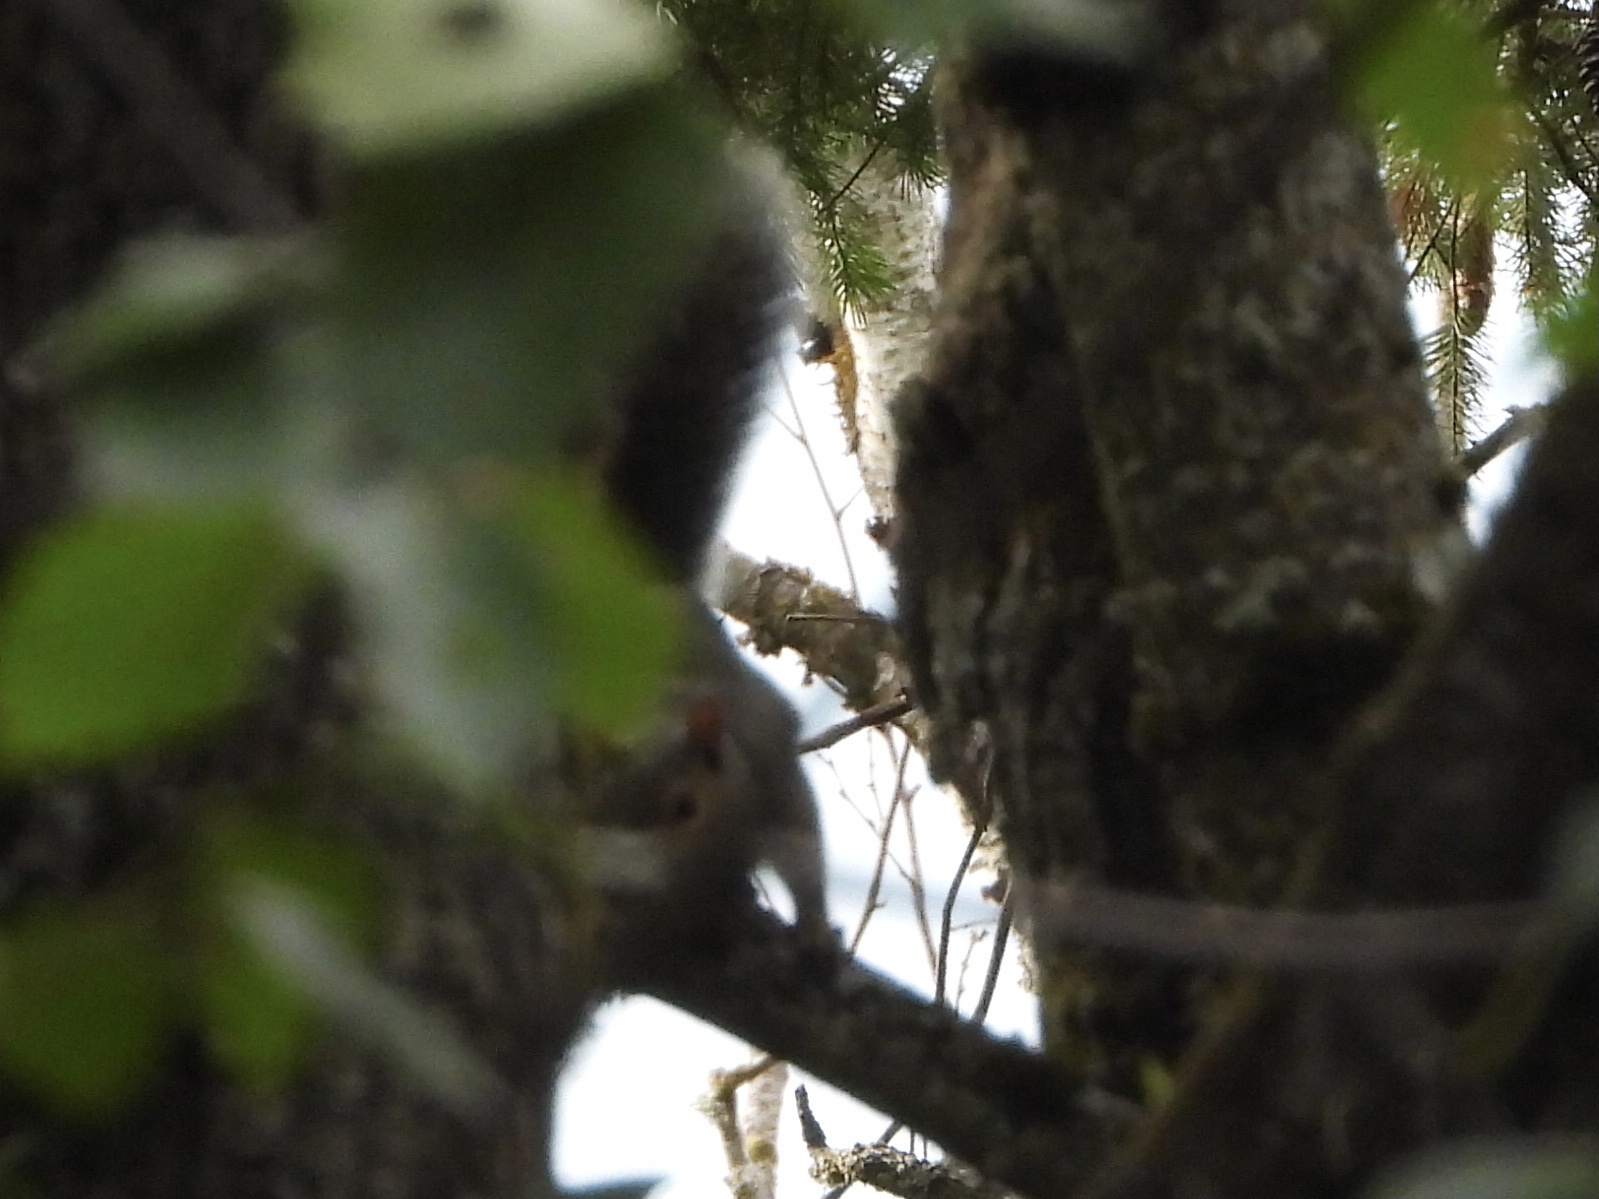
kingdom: Animalia
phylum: Chordata
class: Mammalia
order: Rodentia
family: Sciuridae
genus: Sciurus
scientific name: Sciurus carolinensis
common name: Eastern gray squirrel
